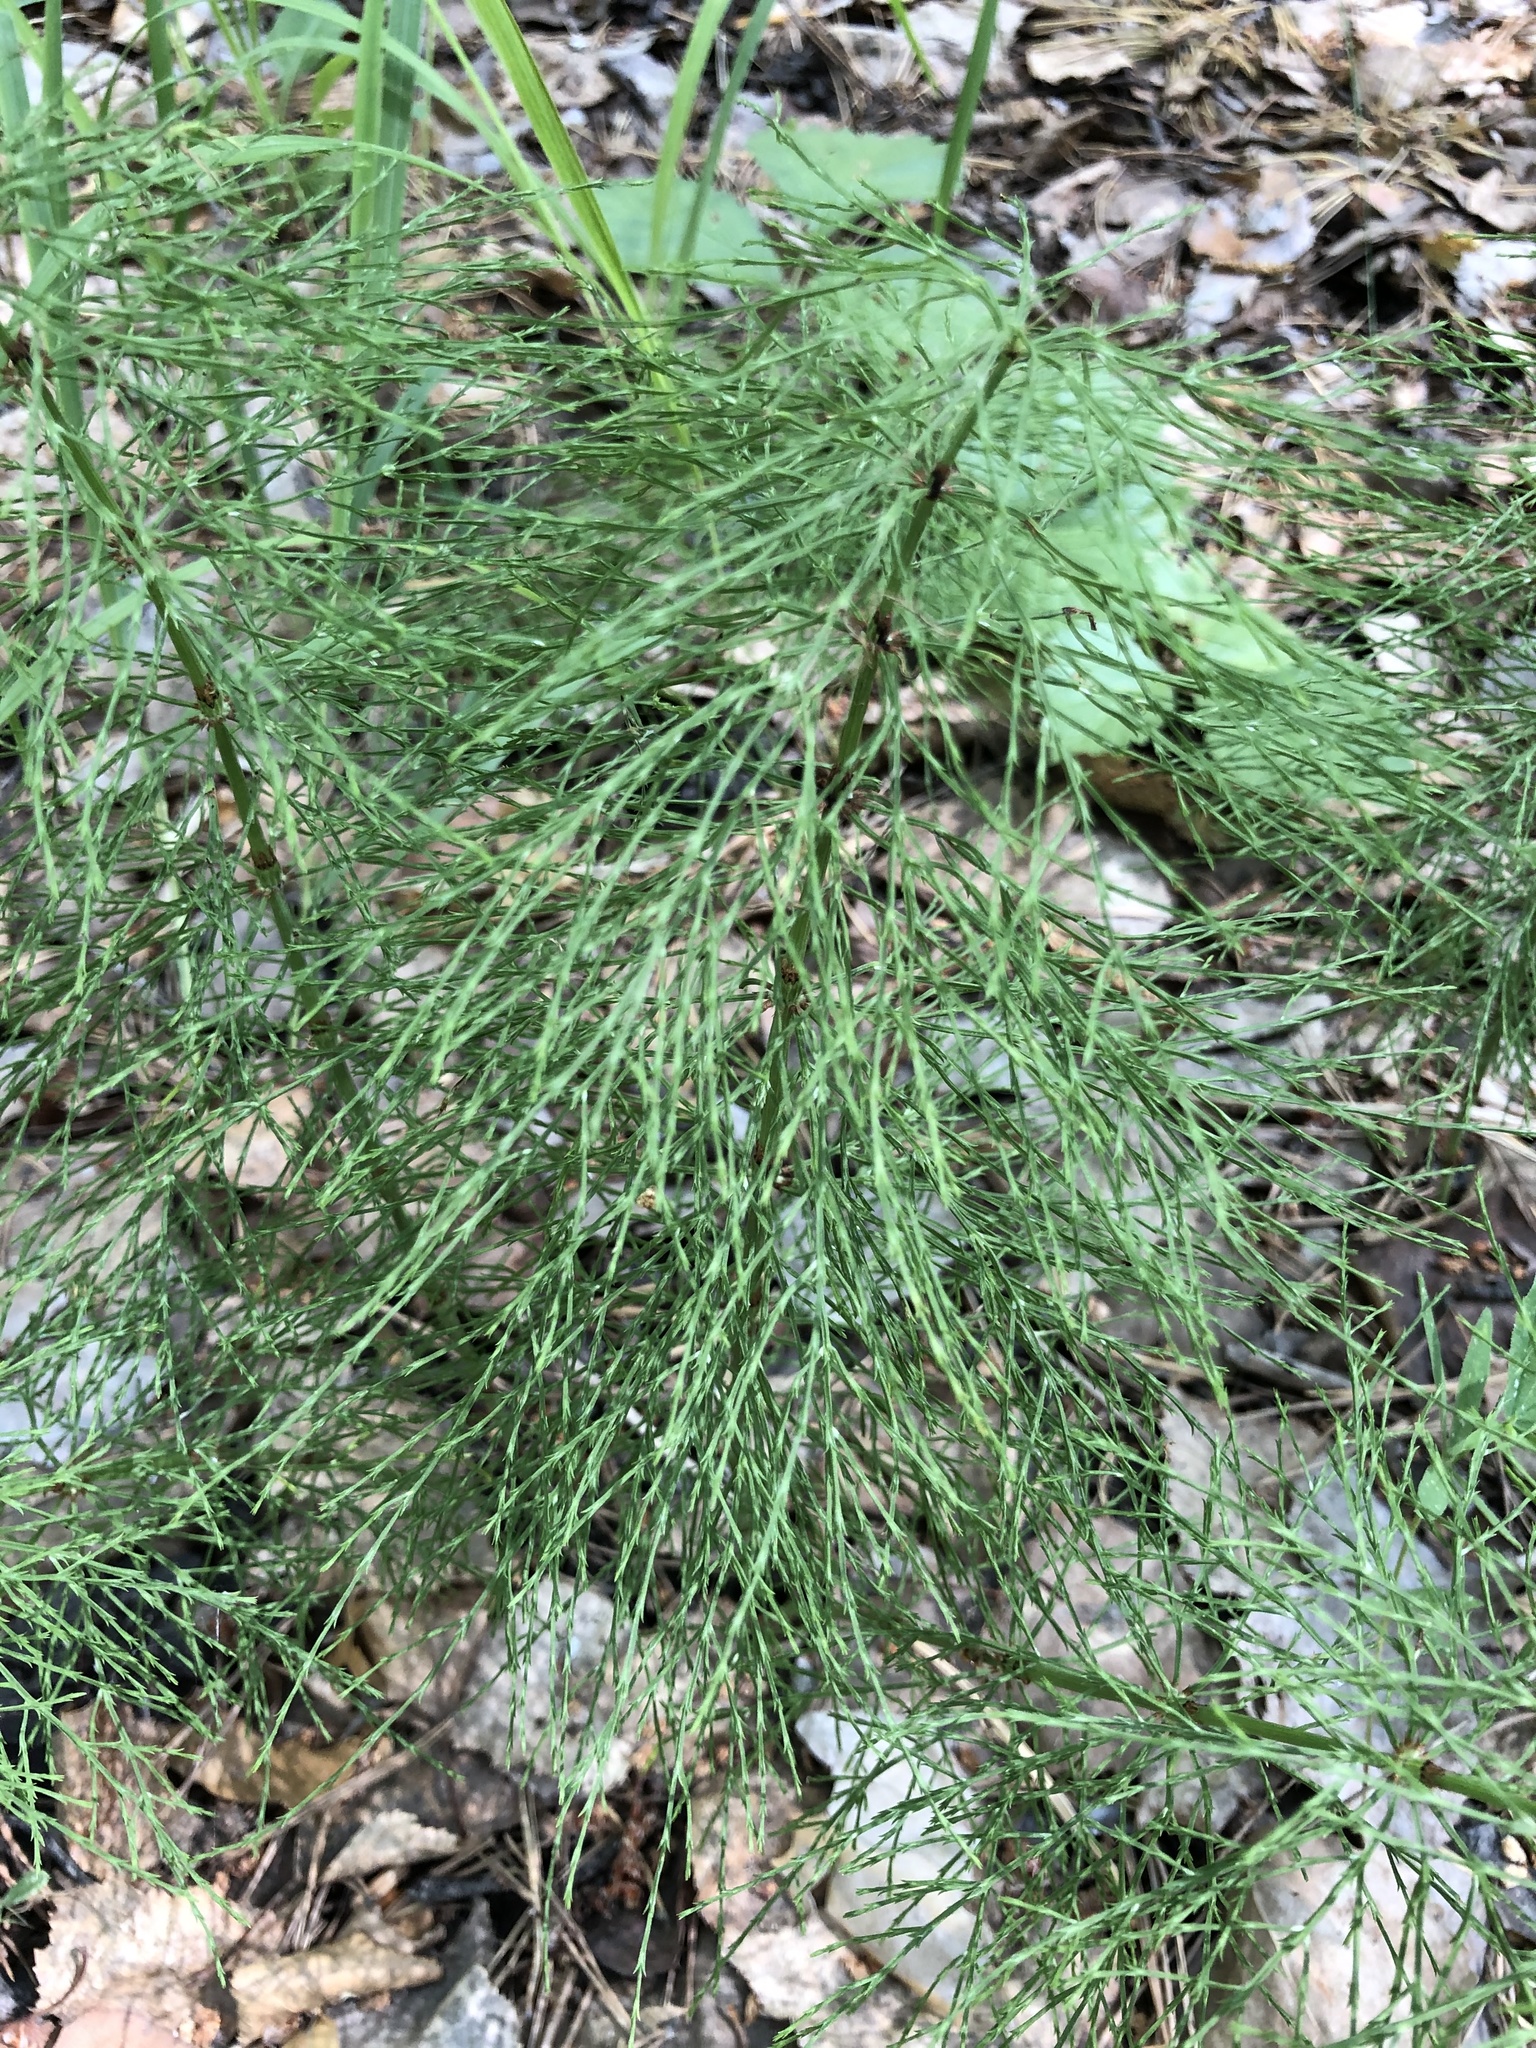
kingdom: Plantae
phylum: Tracheophyta
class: Polypodiopsida
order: Equisetales
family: Equisetaceae
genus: Equisetum
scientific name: Equisetum sylvaticum
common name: Wood horsetail
